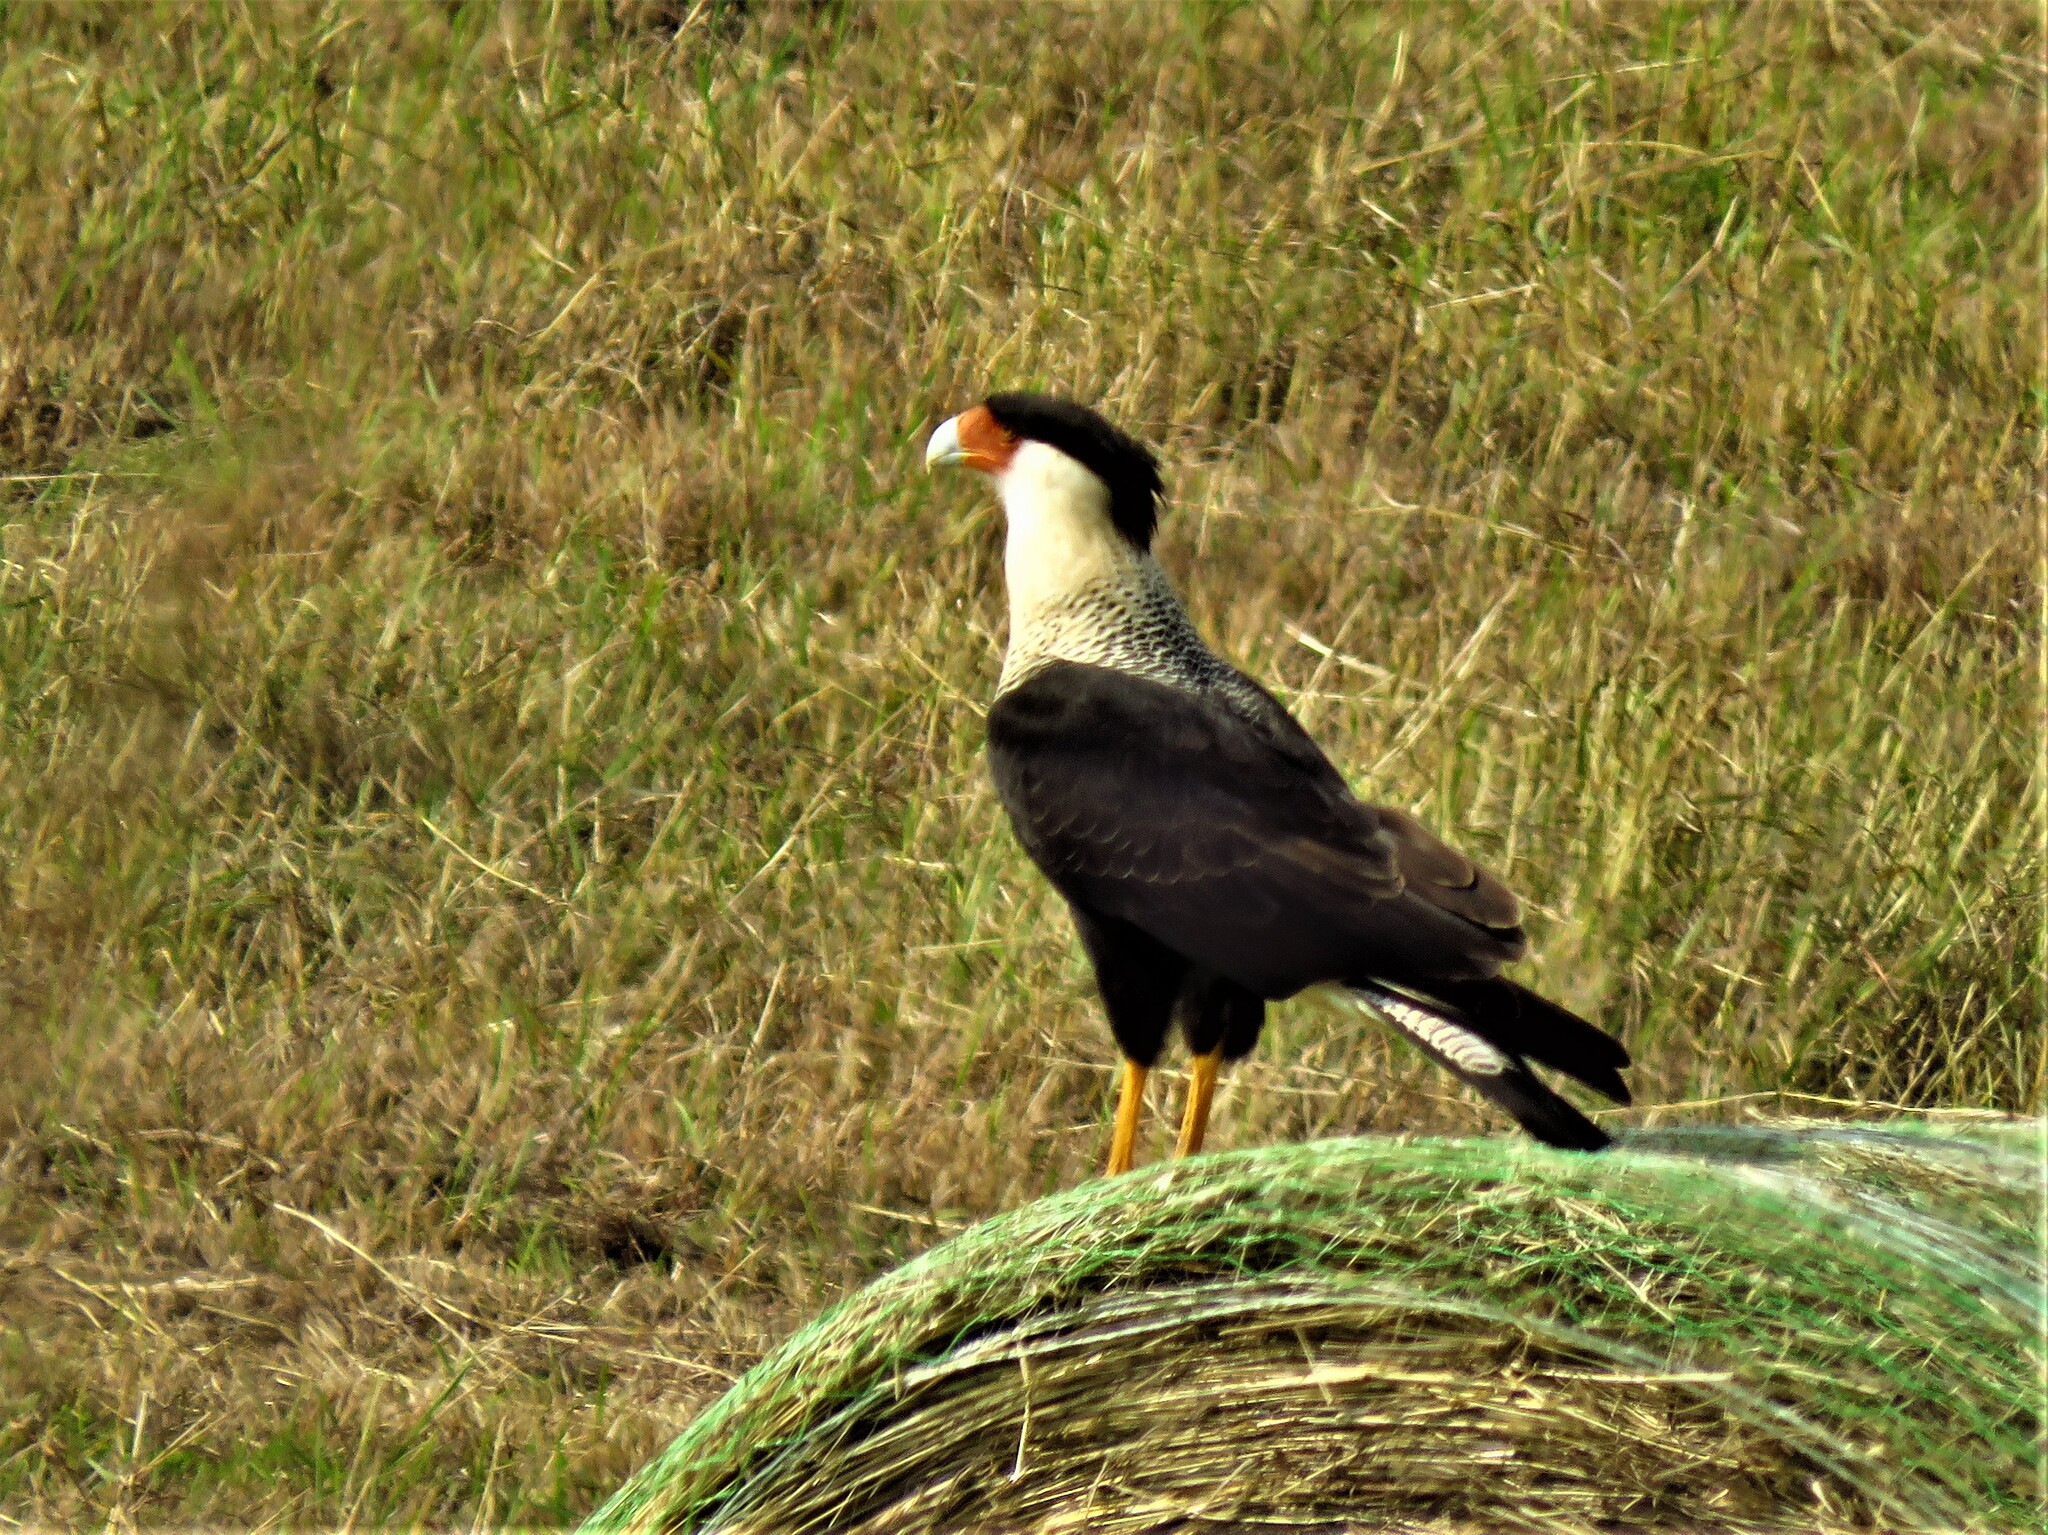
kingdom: Animalia
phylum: Chordata
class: Aves
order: Falconiformes
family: Falconidae
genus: Caracara
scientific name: Caracara plancus
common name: Southern caracara
